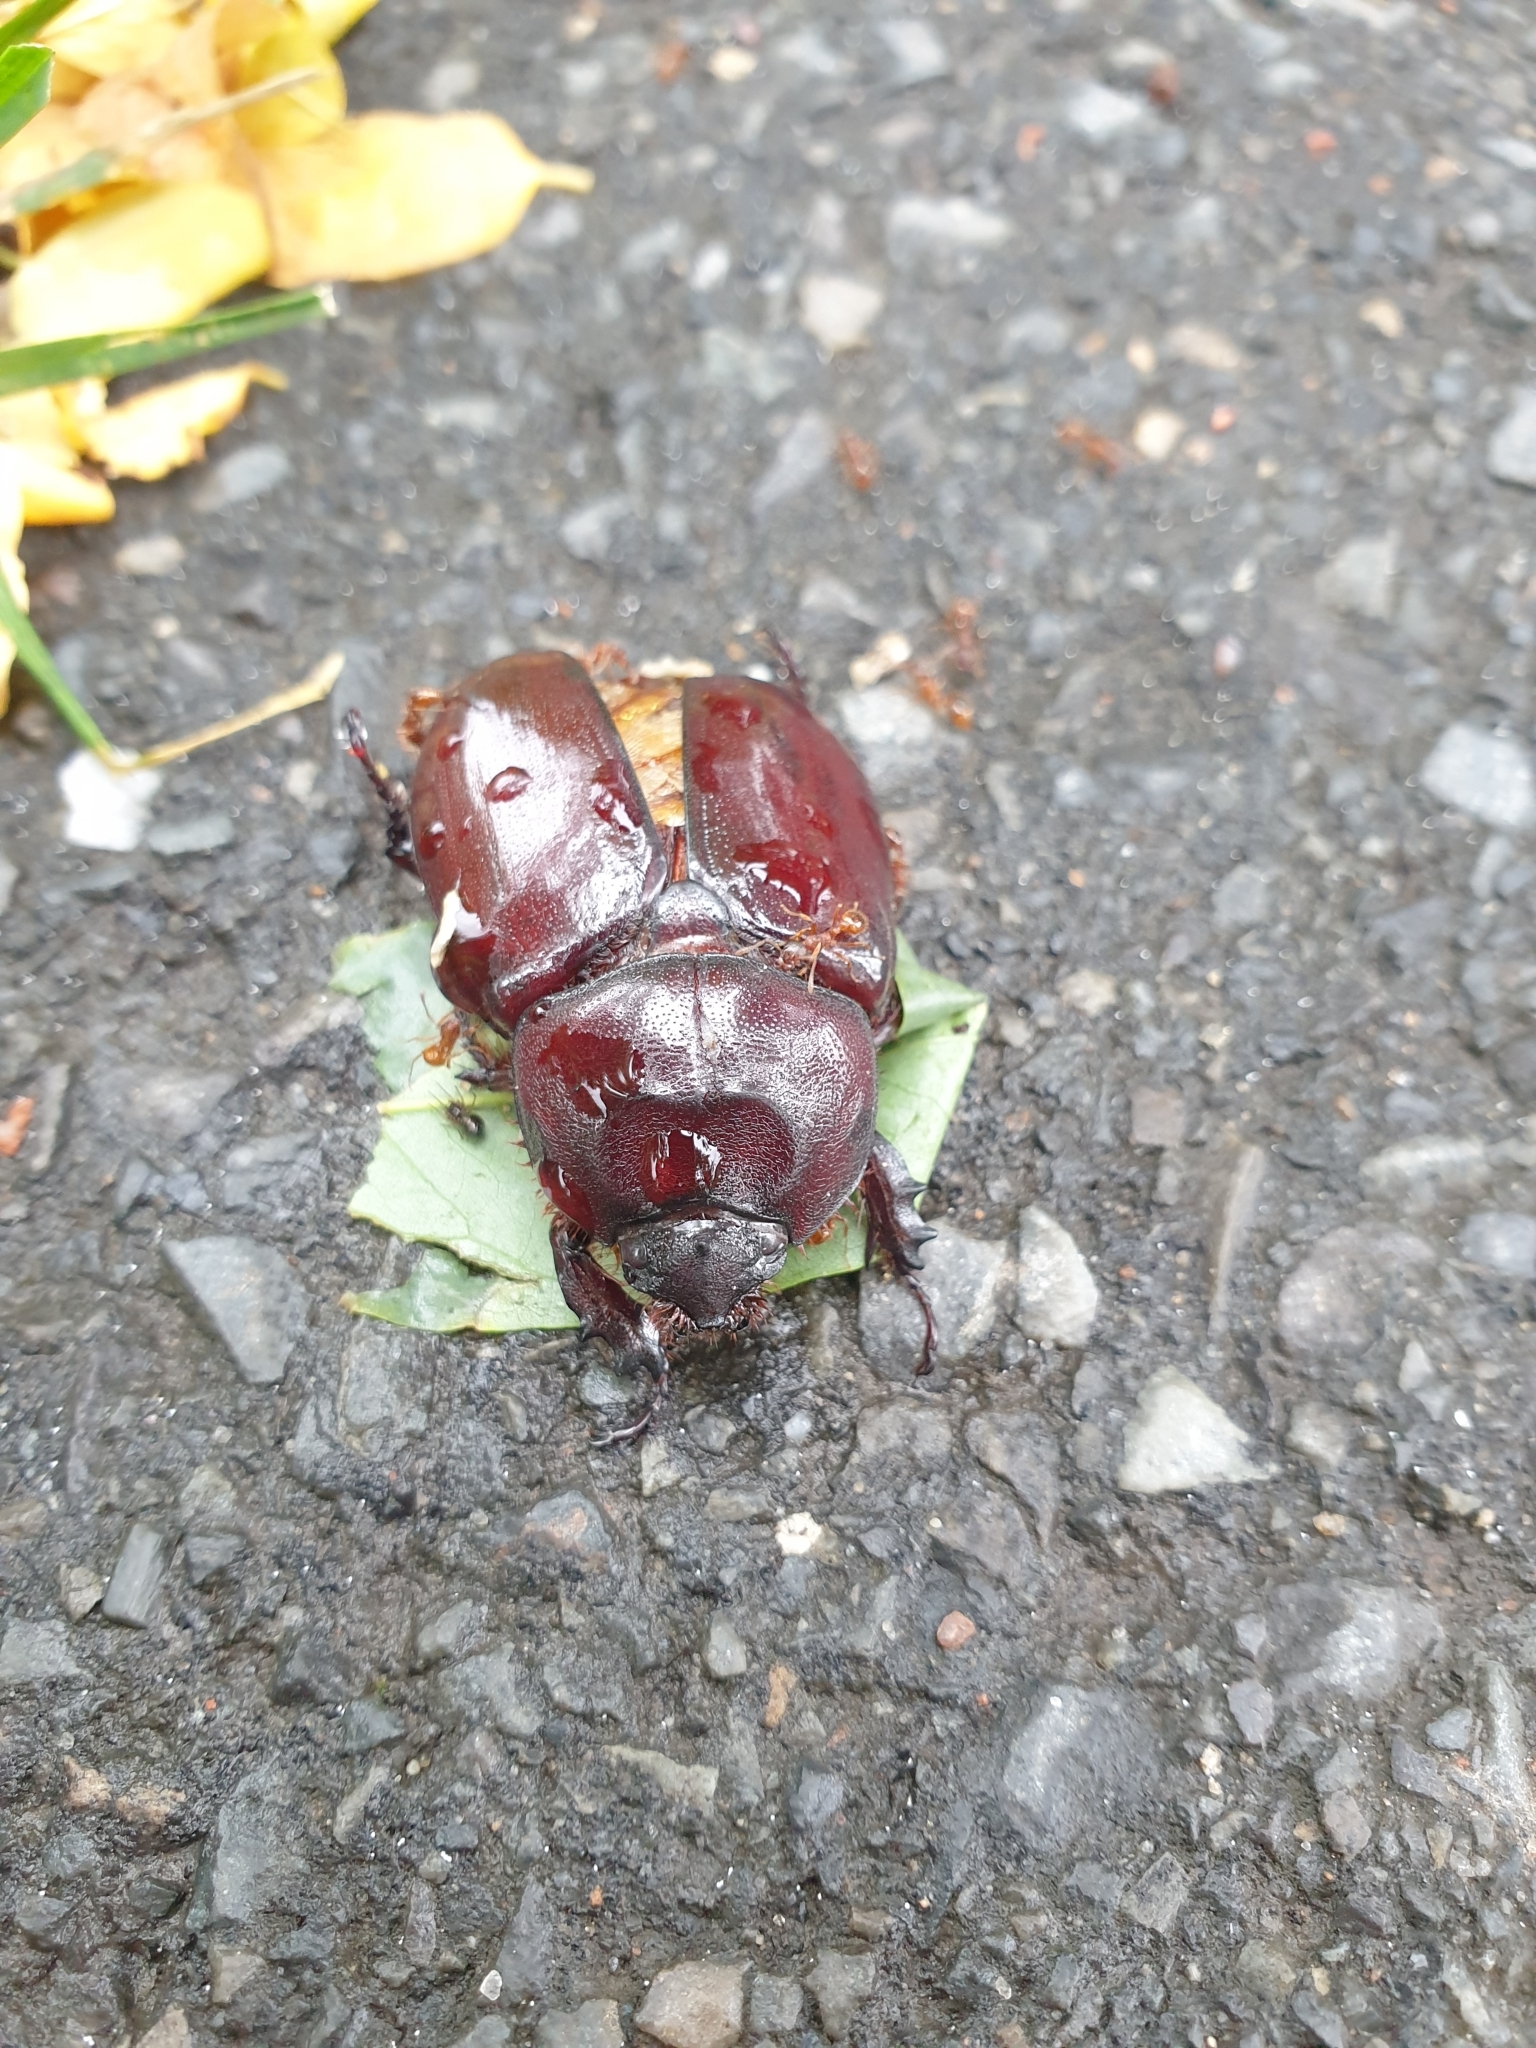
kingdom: Animalia
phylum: Arthropoda
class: Insecta
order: Coleoptera
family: Scarabaeidae
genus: Oryctes
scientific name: Oryctes nasicornis
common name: European rhinoceros beetle
